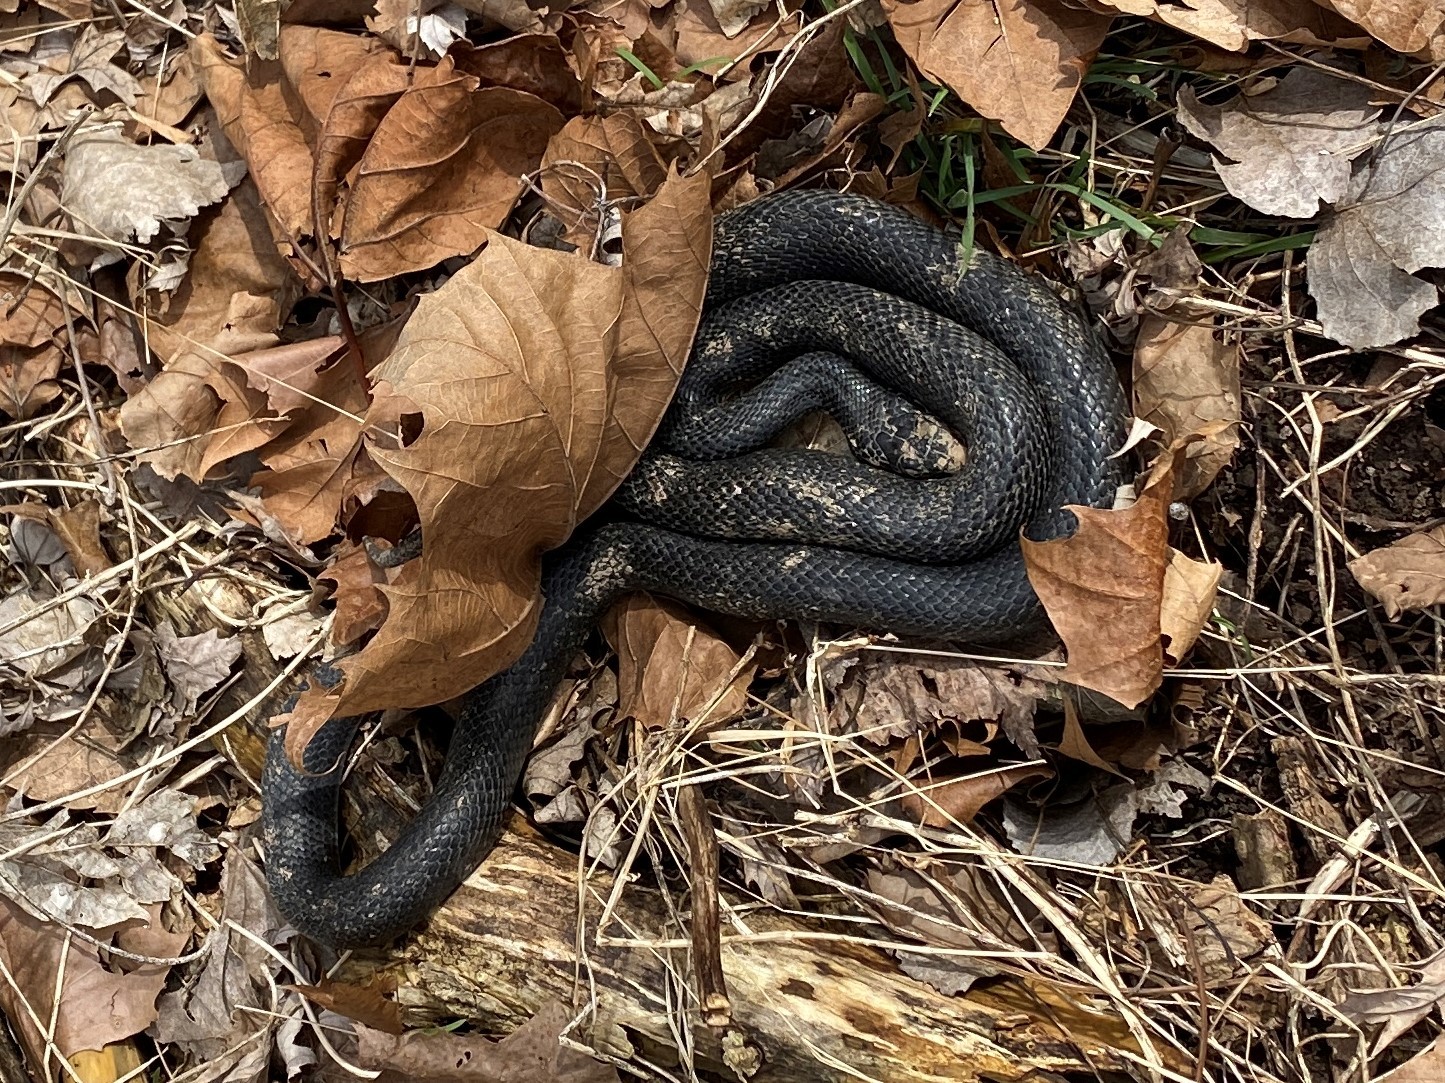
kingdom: Animalia
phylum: Chordata
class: Squamata
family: Colubridae
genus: Pantherophis
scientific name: Pantherophis obsoletus
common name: Black rat snake
